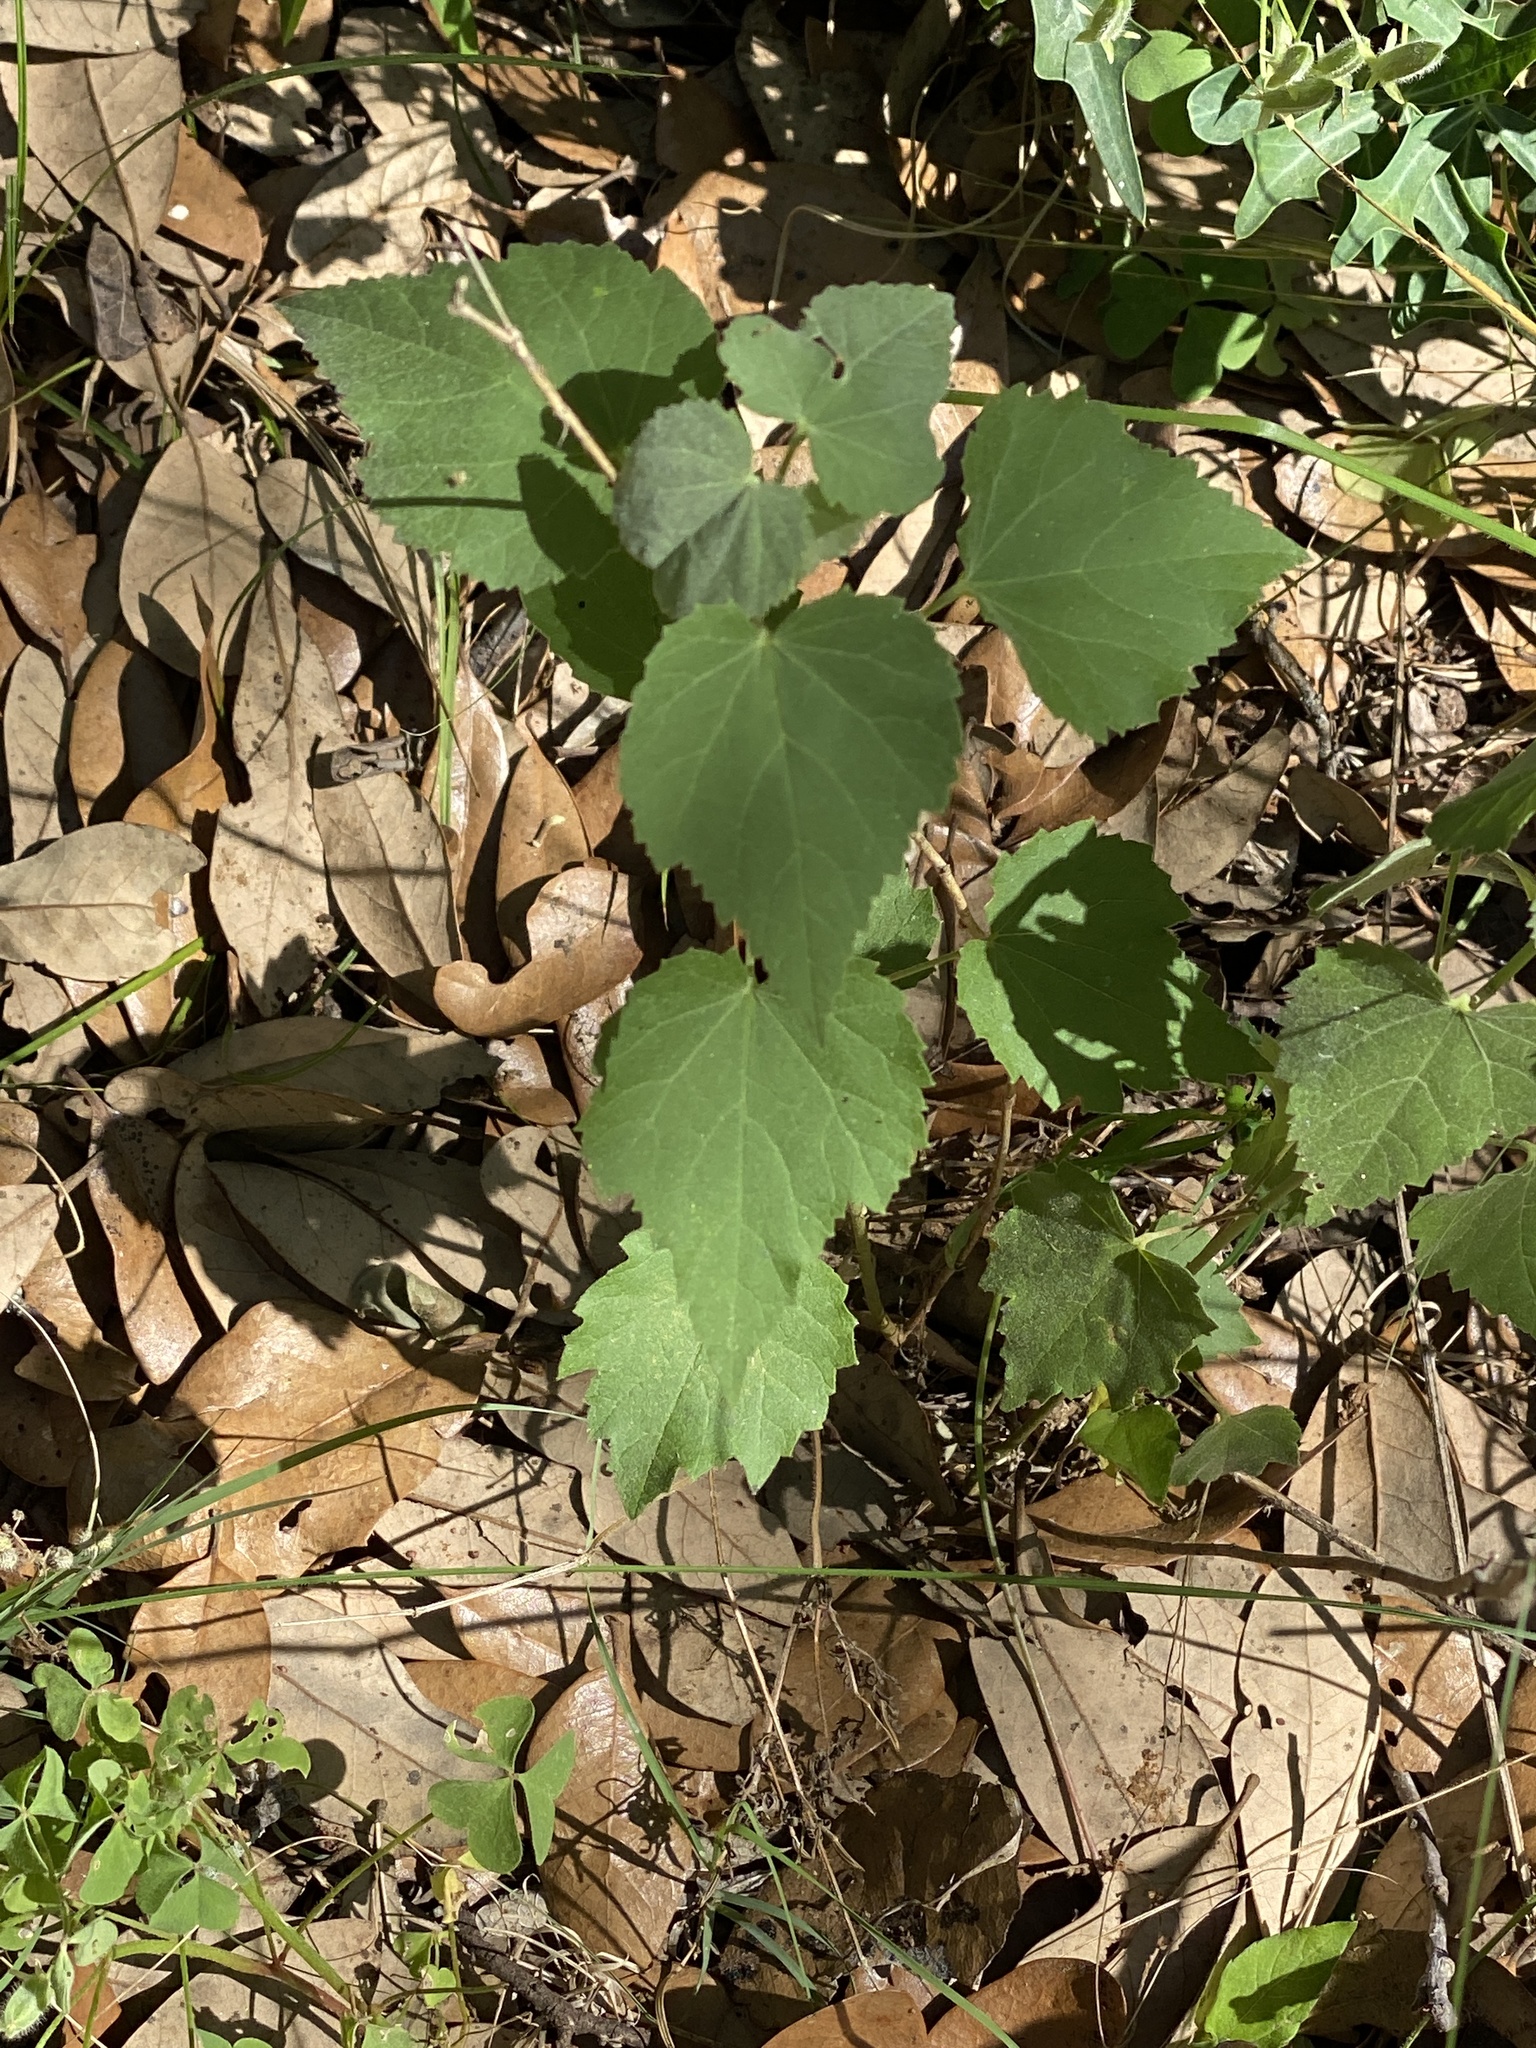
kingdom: Plantae
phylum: Tracheophyta
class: Magnoliopsida
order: Malvales
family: Malvaceae
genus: Abutilon
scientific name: Abutilon fruticosum
